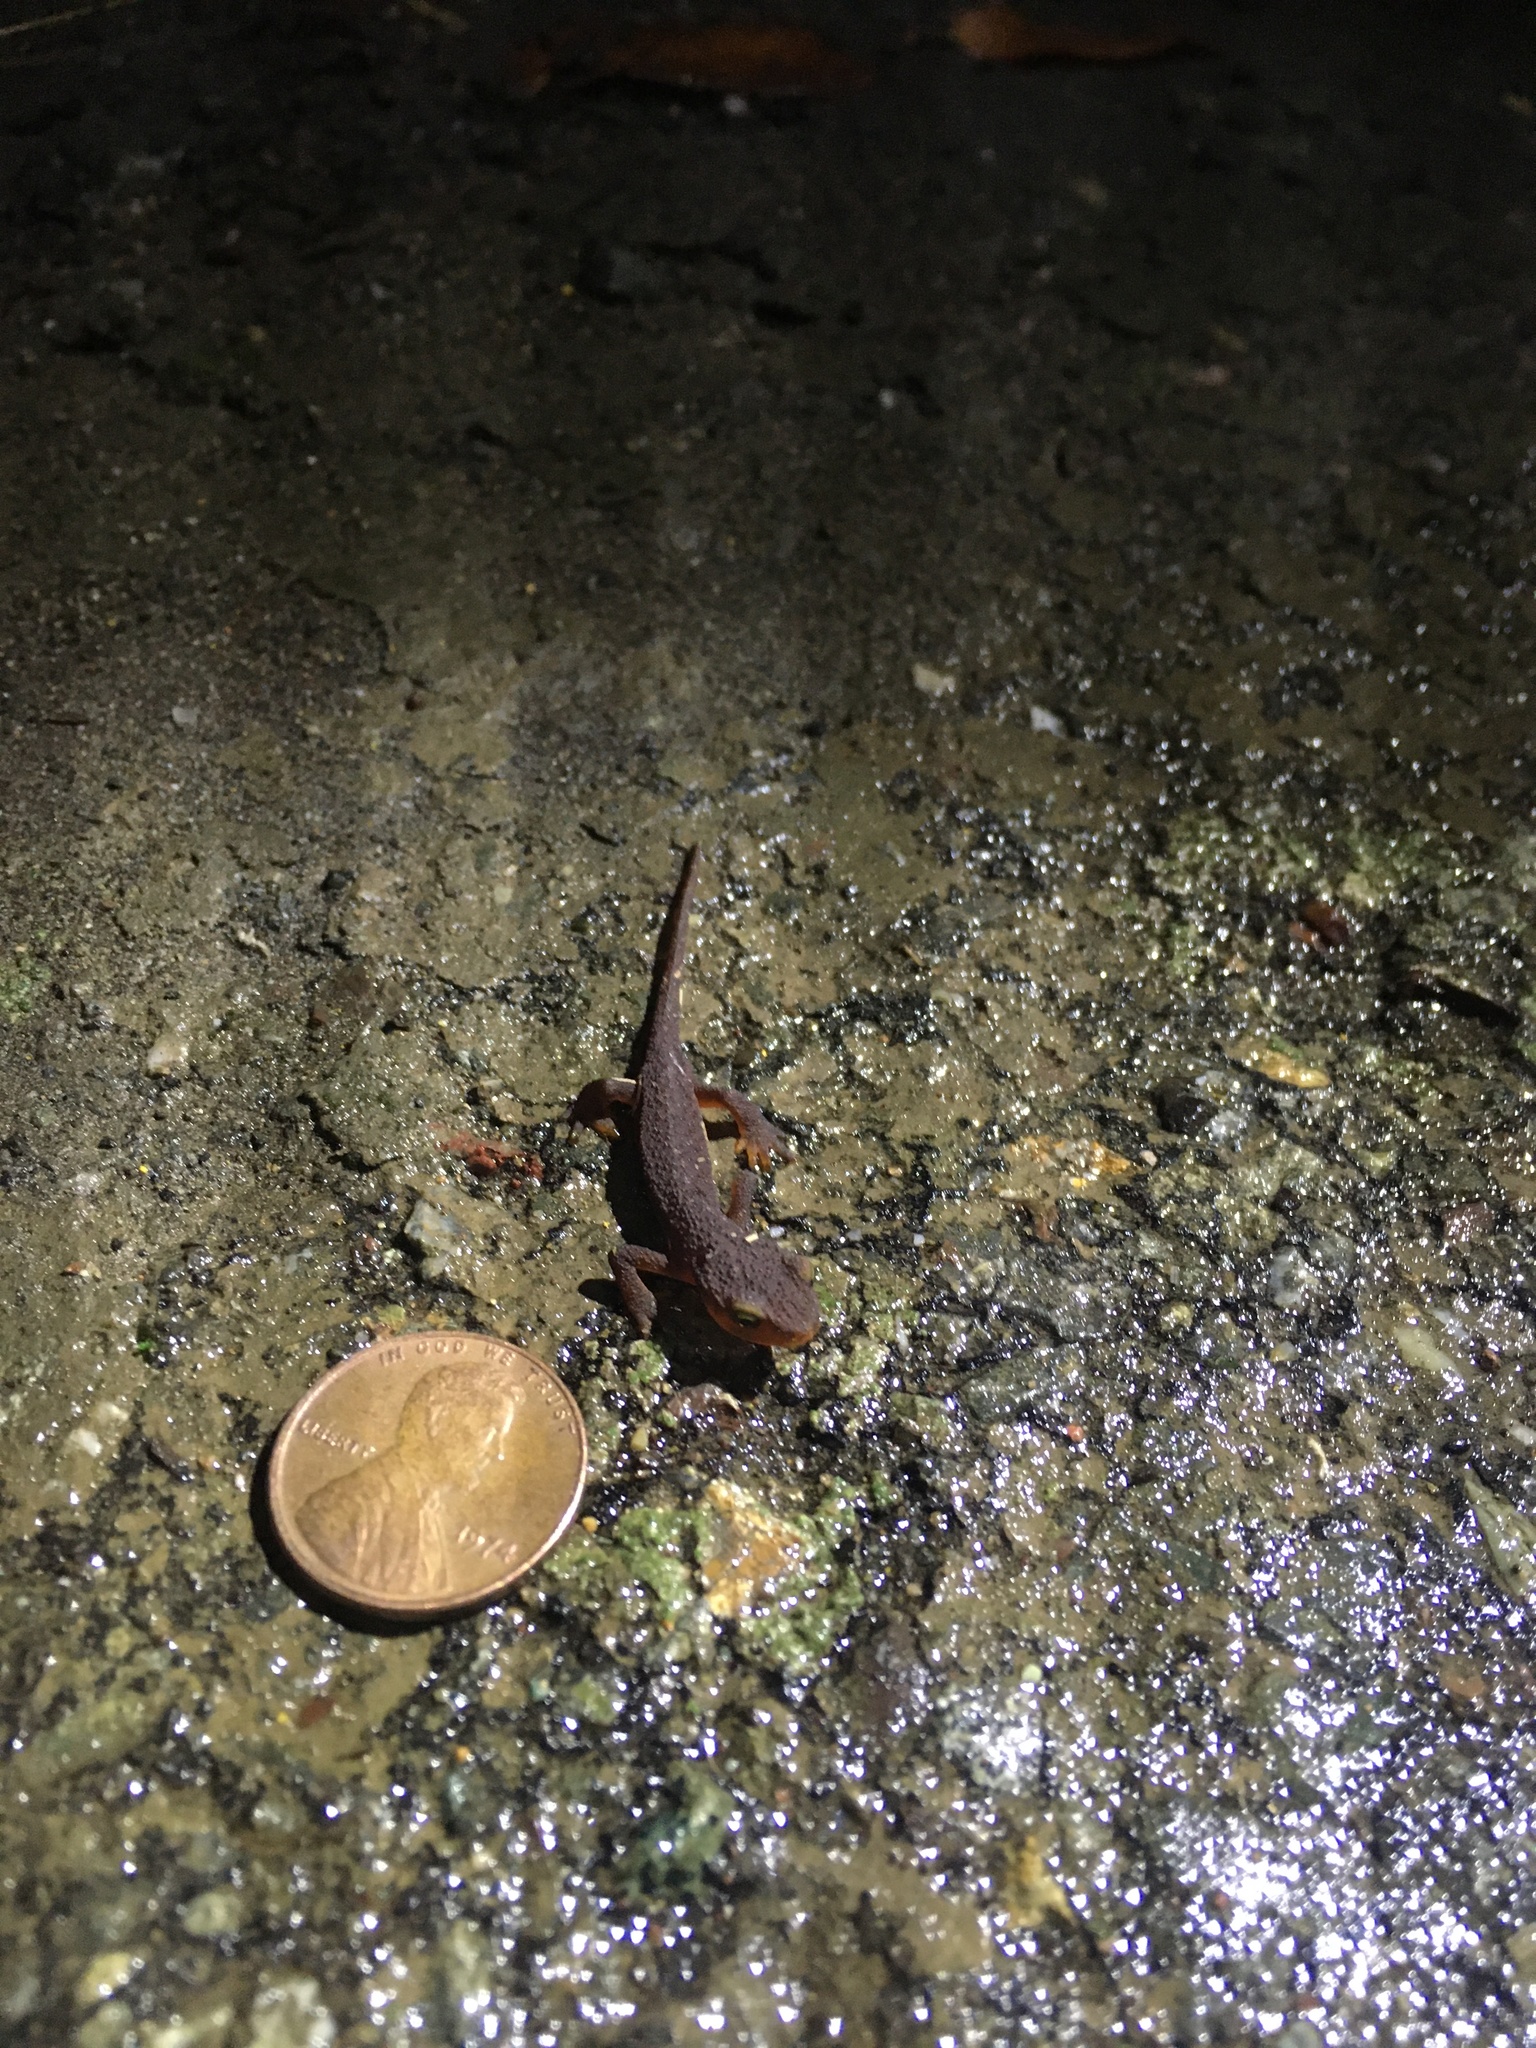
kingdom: Animalia
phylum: Chordata
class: Amphibia
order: Caudata
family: Salamandridae
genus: Taricha
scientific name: Taricha torosa
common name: California newt
